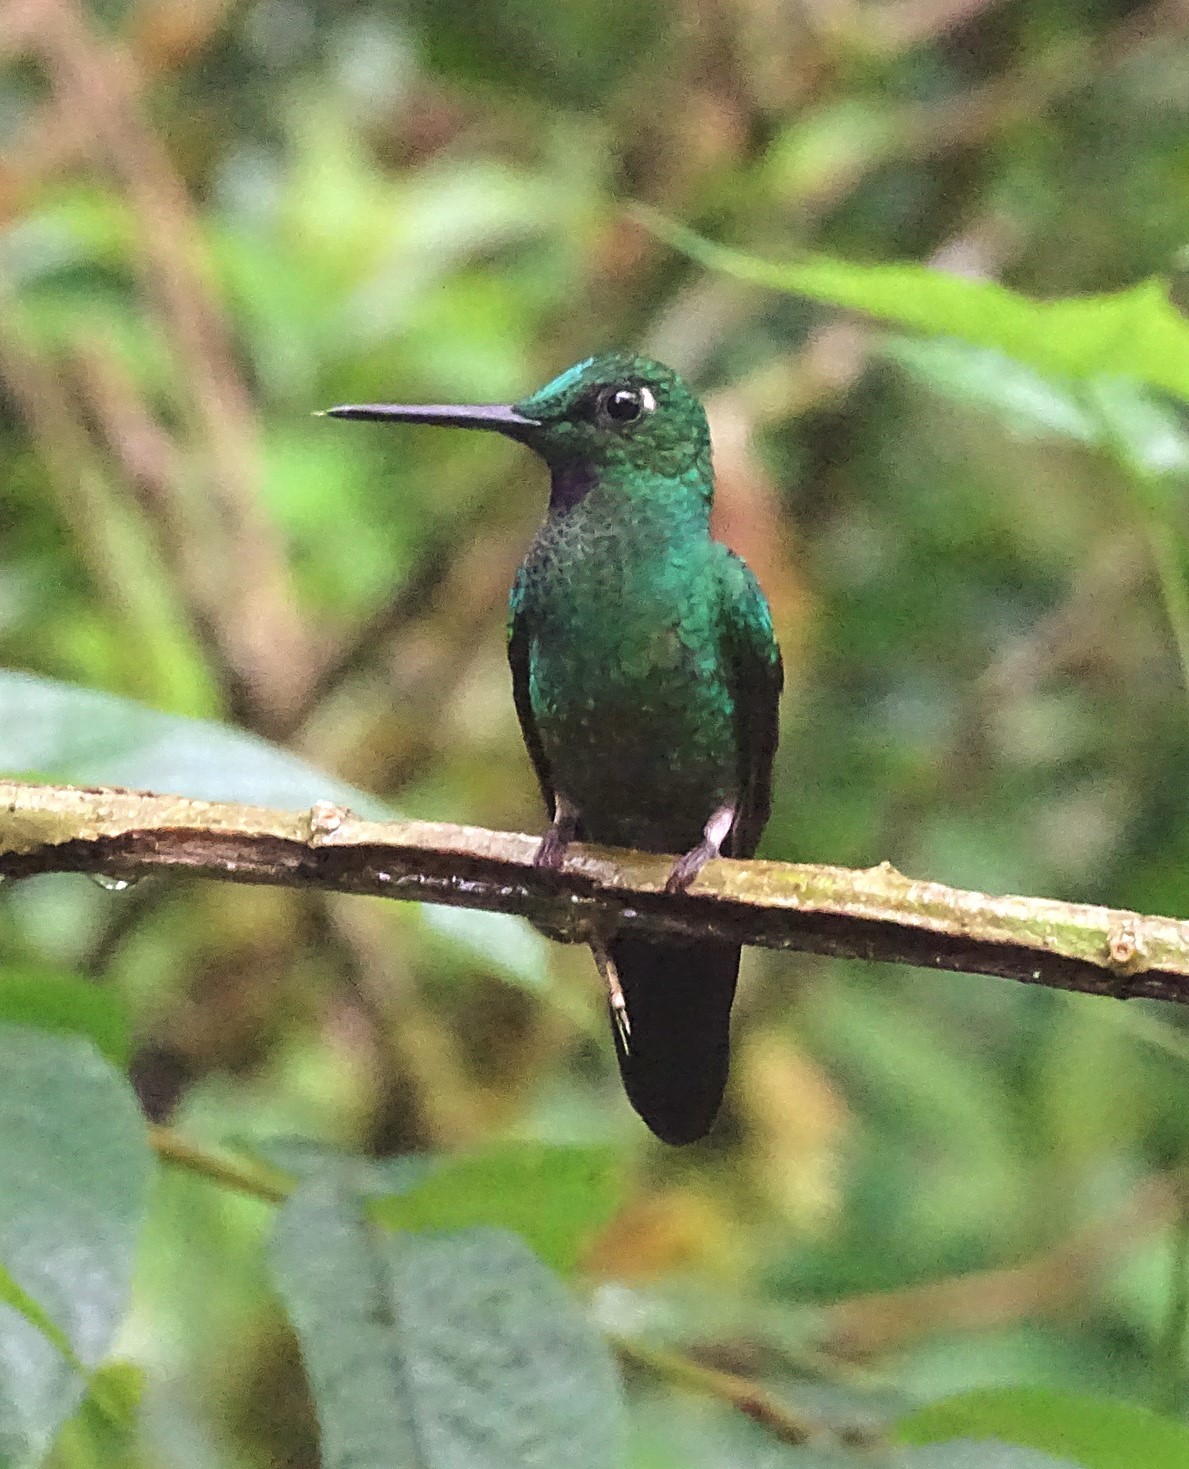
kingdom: Animalia
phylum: Chordata
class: Aves
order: Apodiformes
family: Trochilidae
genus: Heliodoxa
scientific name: Heliodoxa jacula
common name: Green-crowned brilliant
